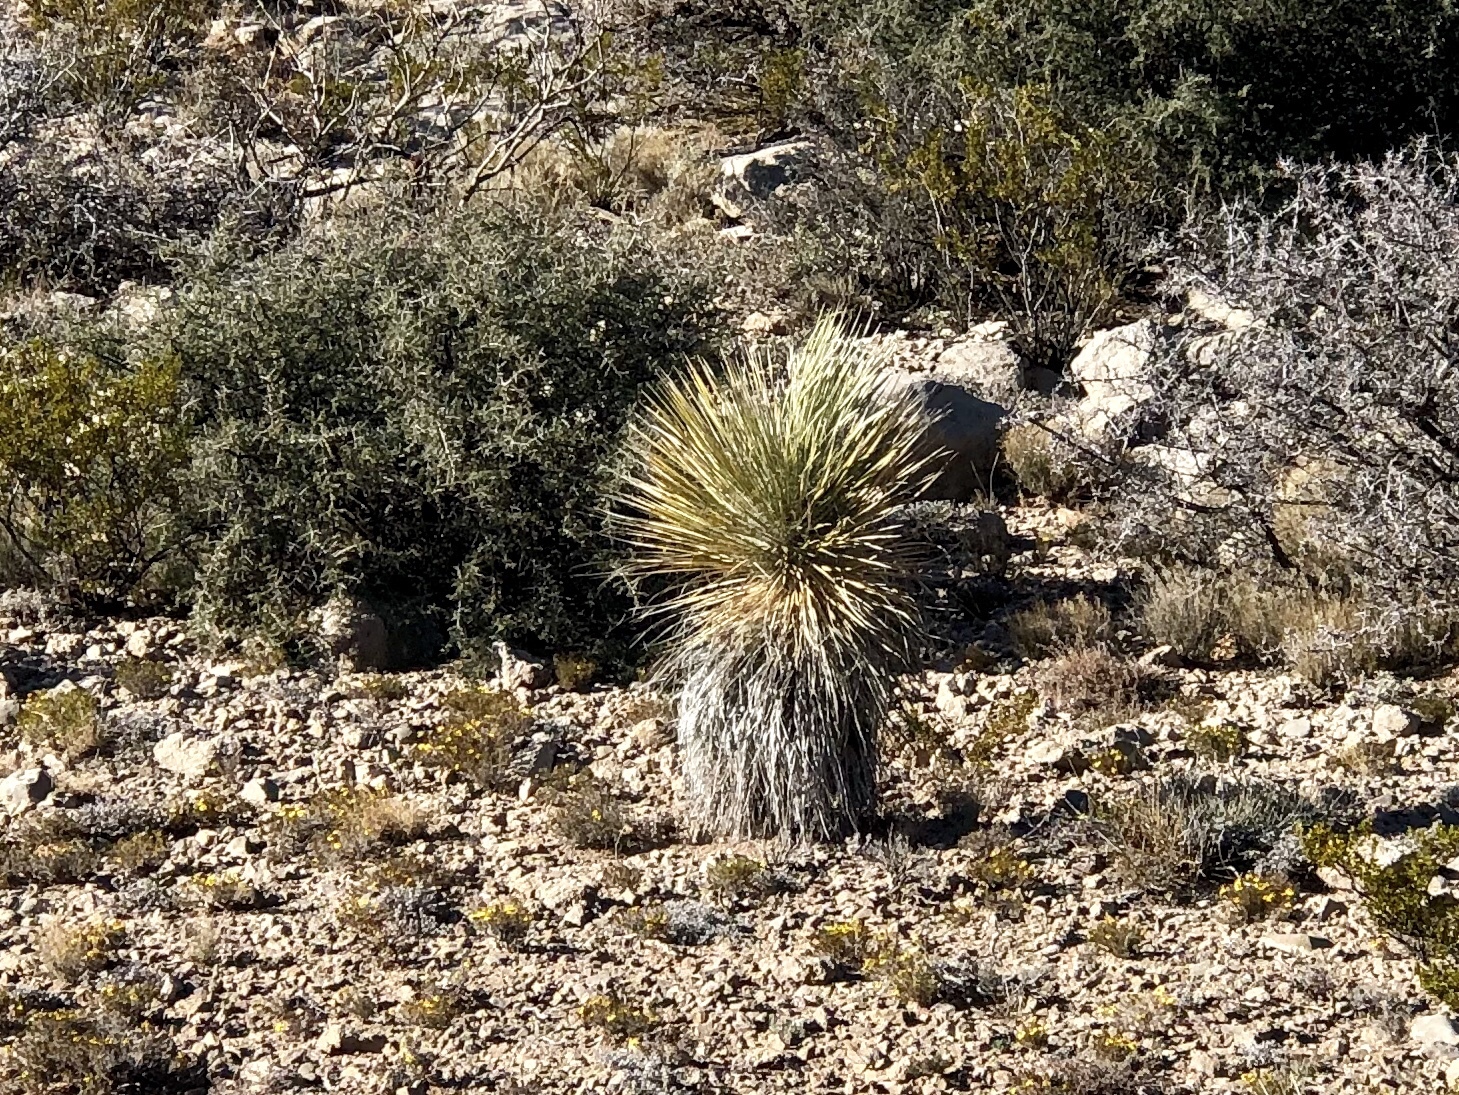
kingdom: Plantae
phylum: Tracheophyta
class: Liliopsida
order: Asparagales
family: Asparagaceae
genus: Yucca
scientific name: Yucca elata
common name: Palmella
